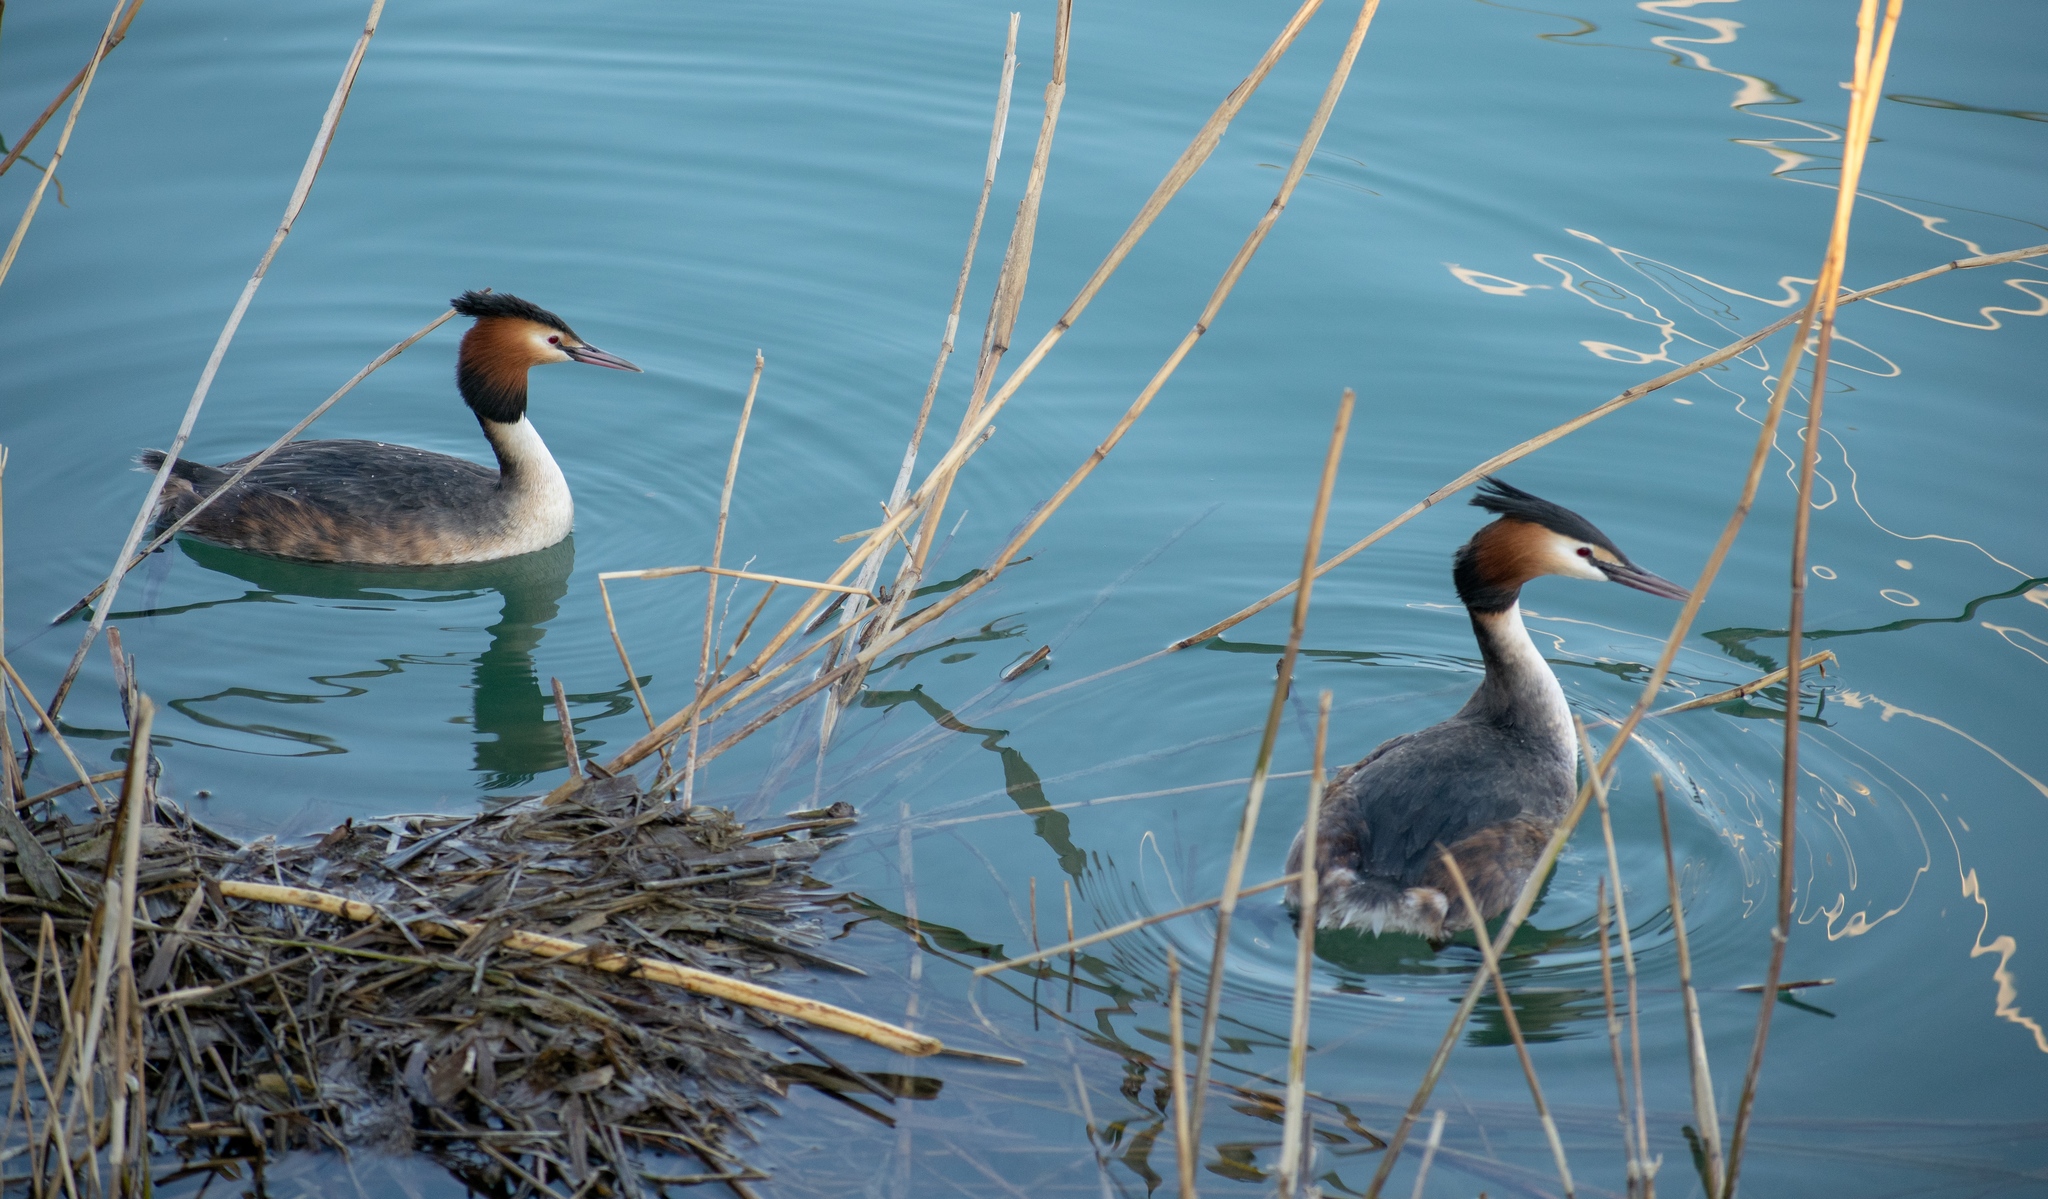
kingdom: Animalia
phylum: Chordata
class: Aves
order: Podicipediformes
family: Podicipedidae
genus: Podiceps
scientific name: Podiceps cristatus
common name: Great crested grebe
